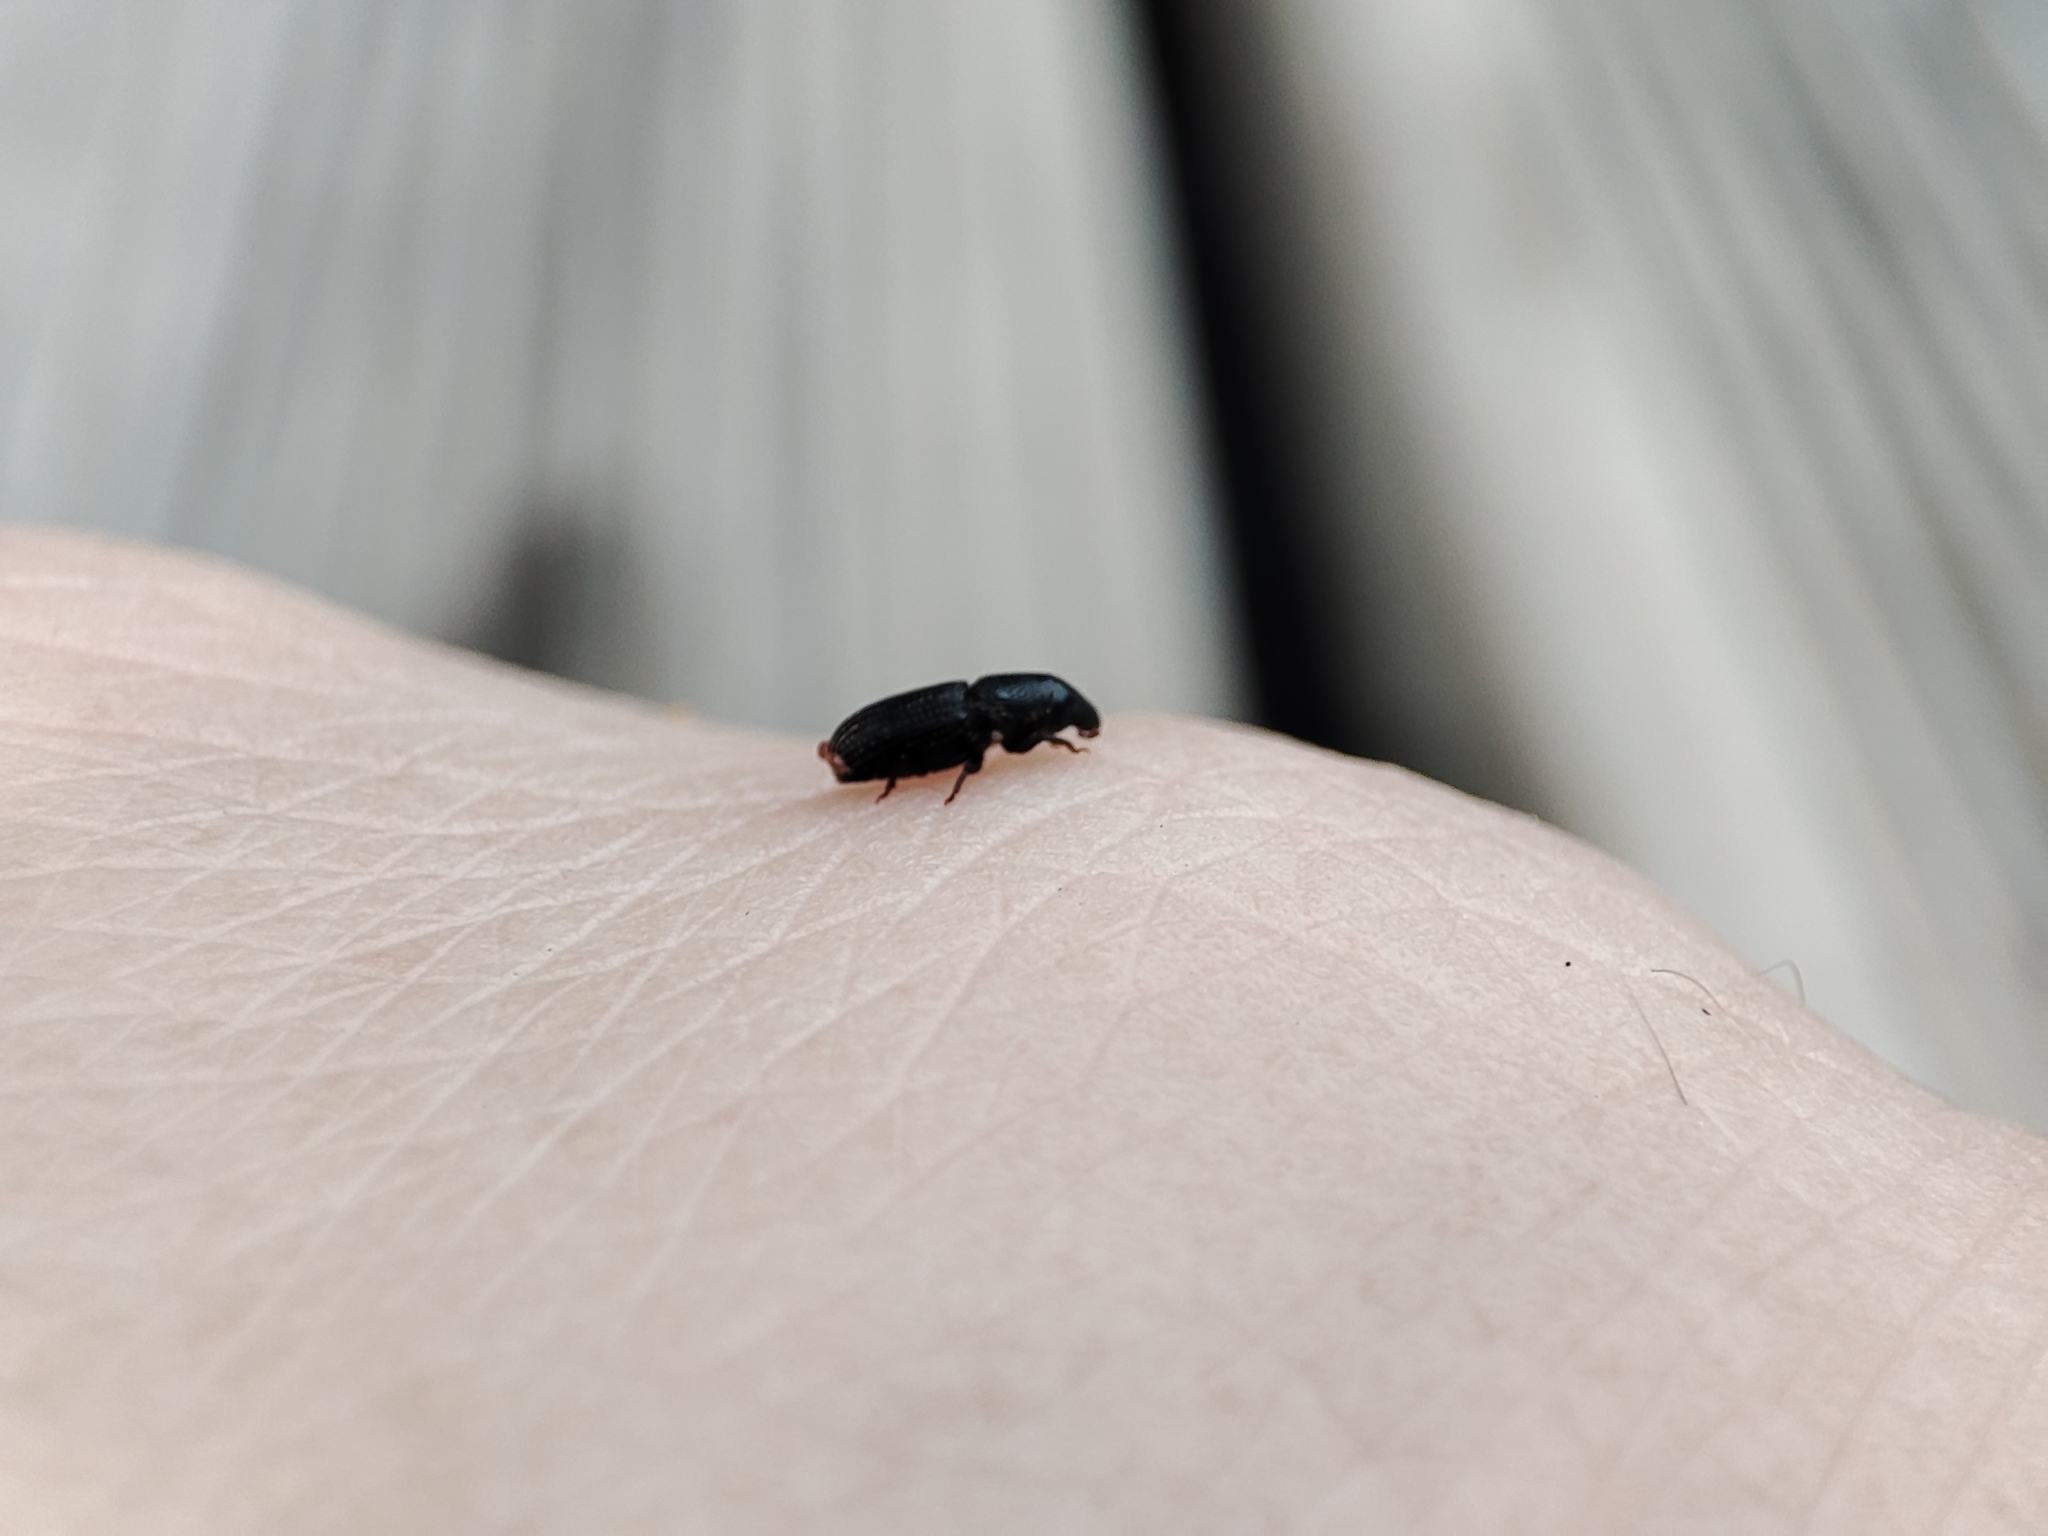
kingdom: Animalia
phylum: Arthropoda
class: Insecta
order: Coleoptera
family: Curculionidae
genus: Brachytemnus
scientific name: Brachytemnus porcatus
